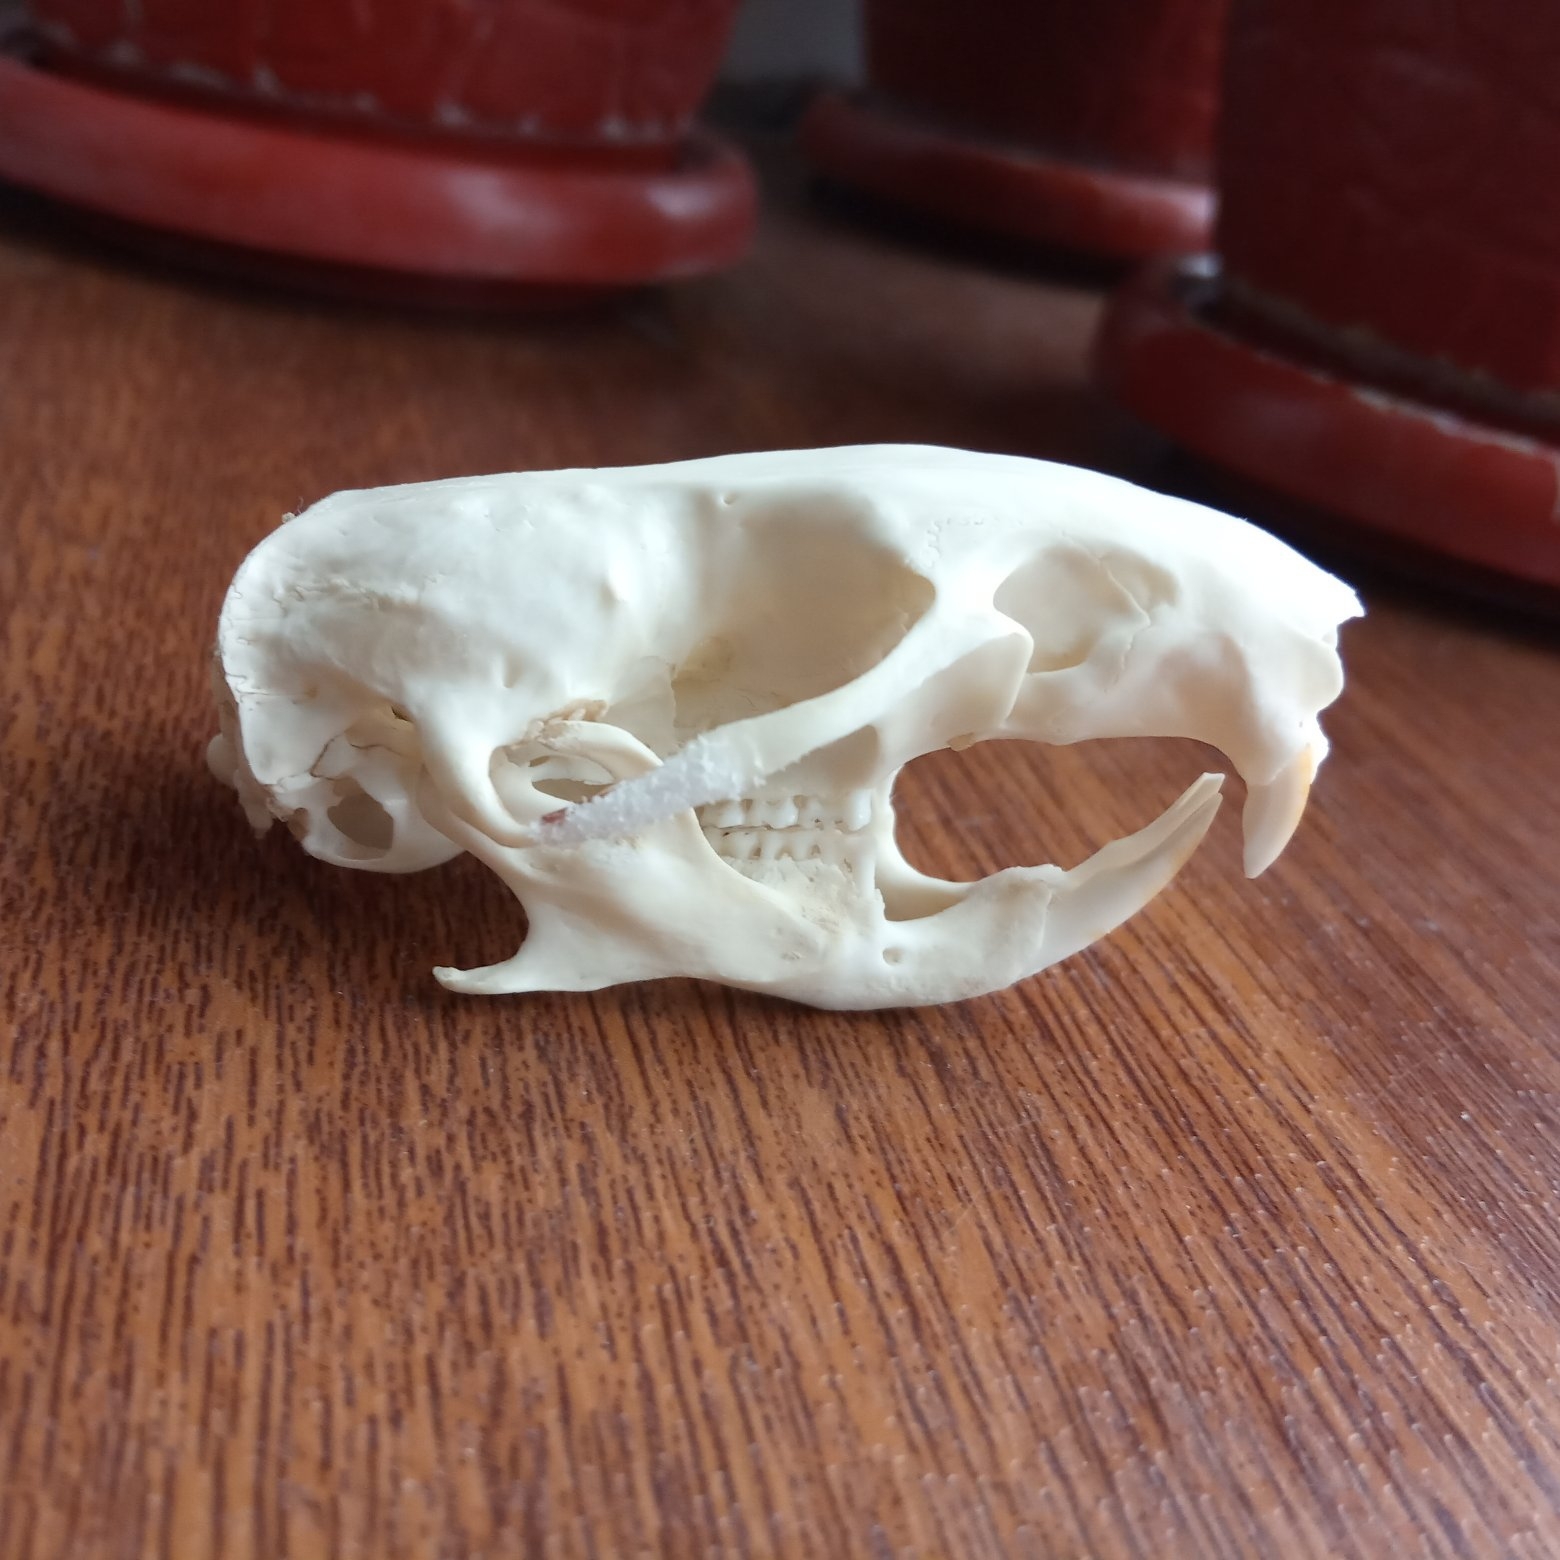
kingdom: Animalia
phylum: Chordata
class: Mammalia
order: Rodentia
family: Cricetidae
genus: Cricetus
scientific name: Cricetus cricetus
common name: Common hamster
